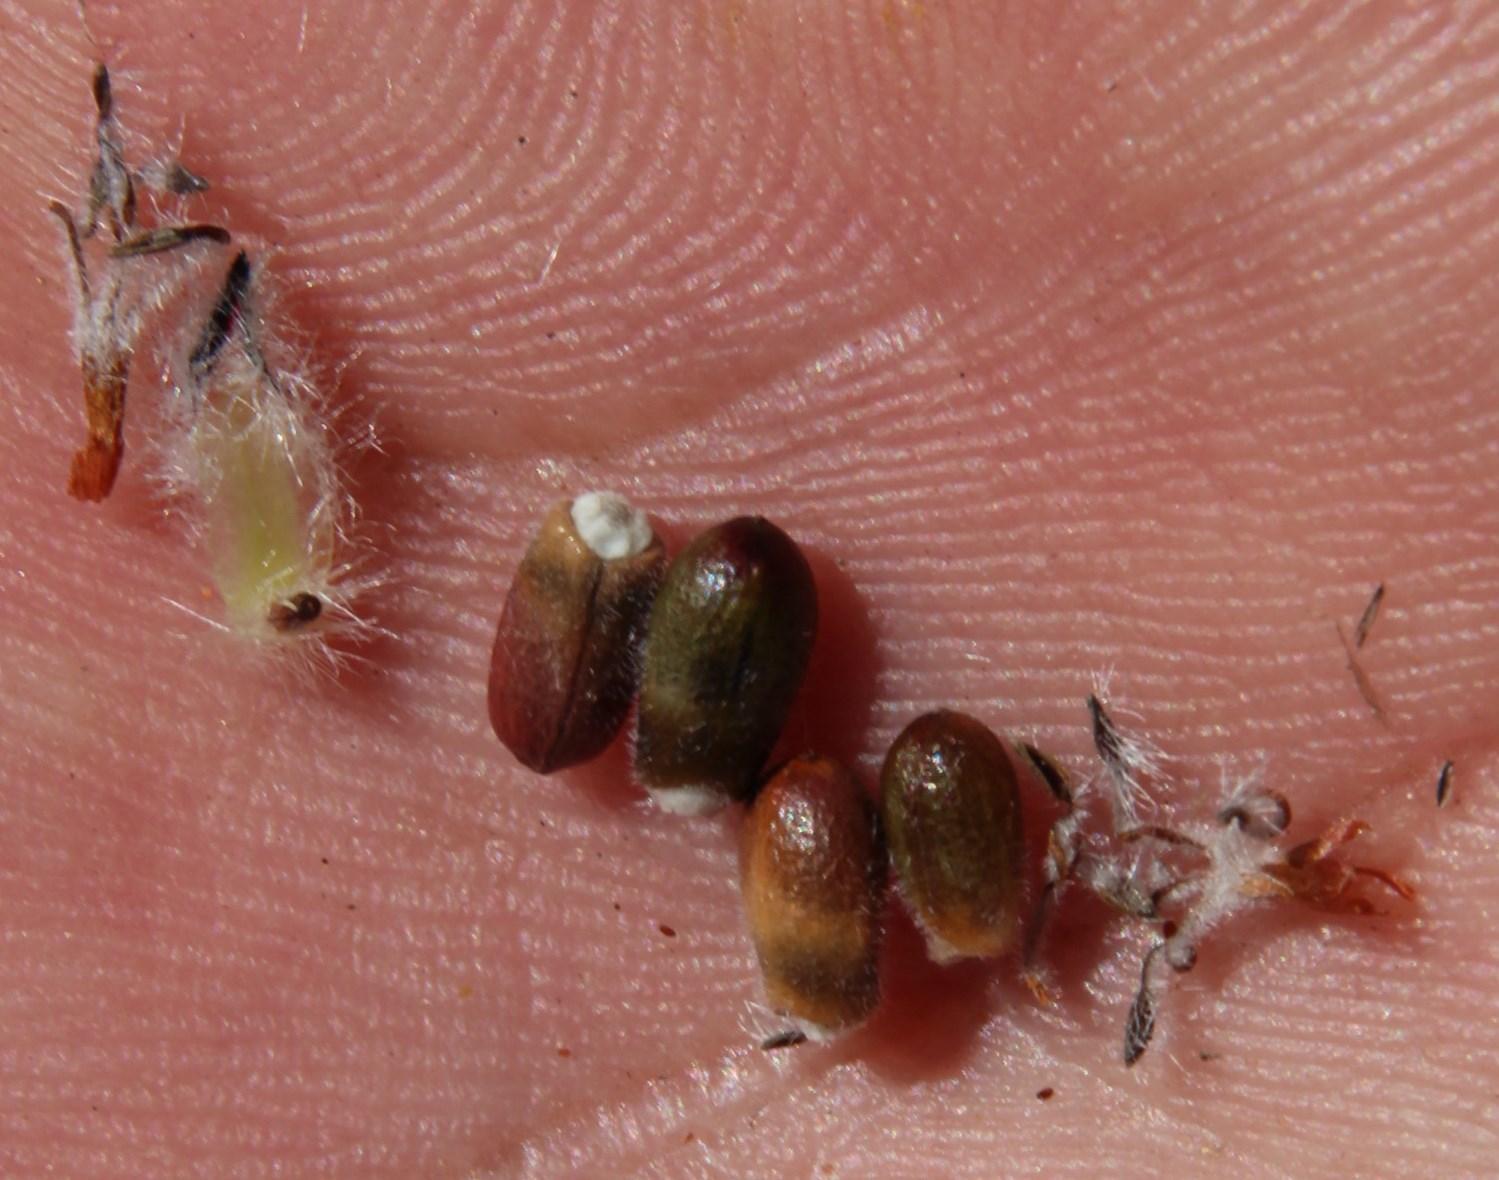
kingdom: Plantae
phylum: Tracheophyta
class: Magnoliopsida
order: Proteales
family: Proteaceae
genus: Sorocephalus
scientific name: Sorocephalus alopecurus
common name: Woolly-stalk clusterhead
